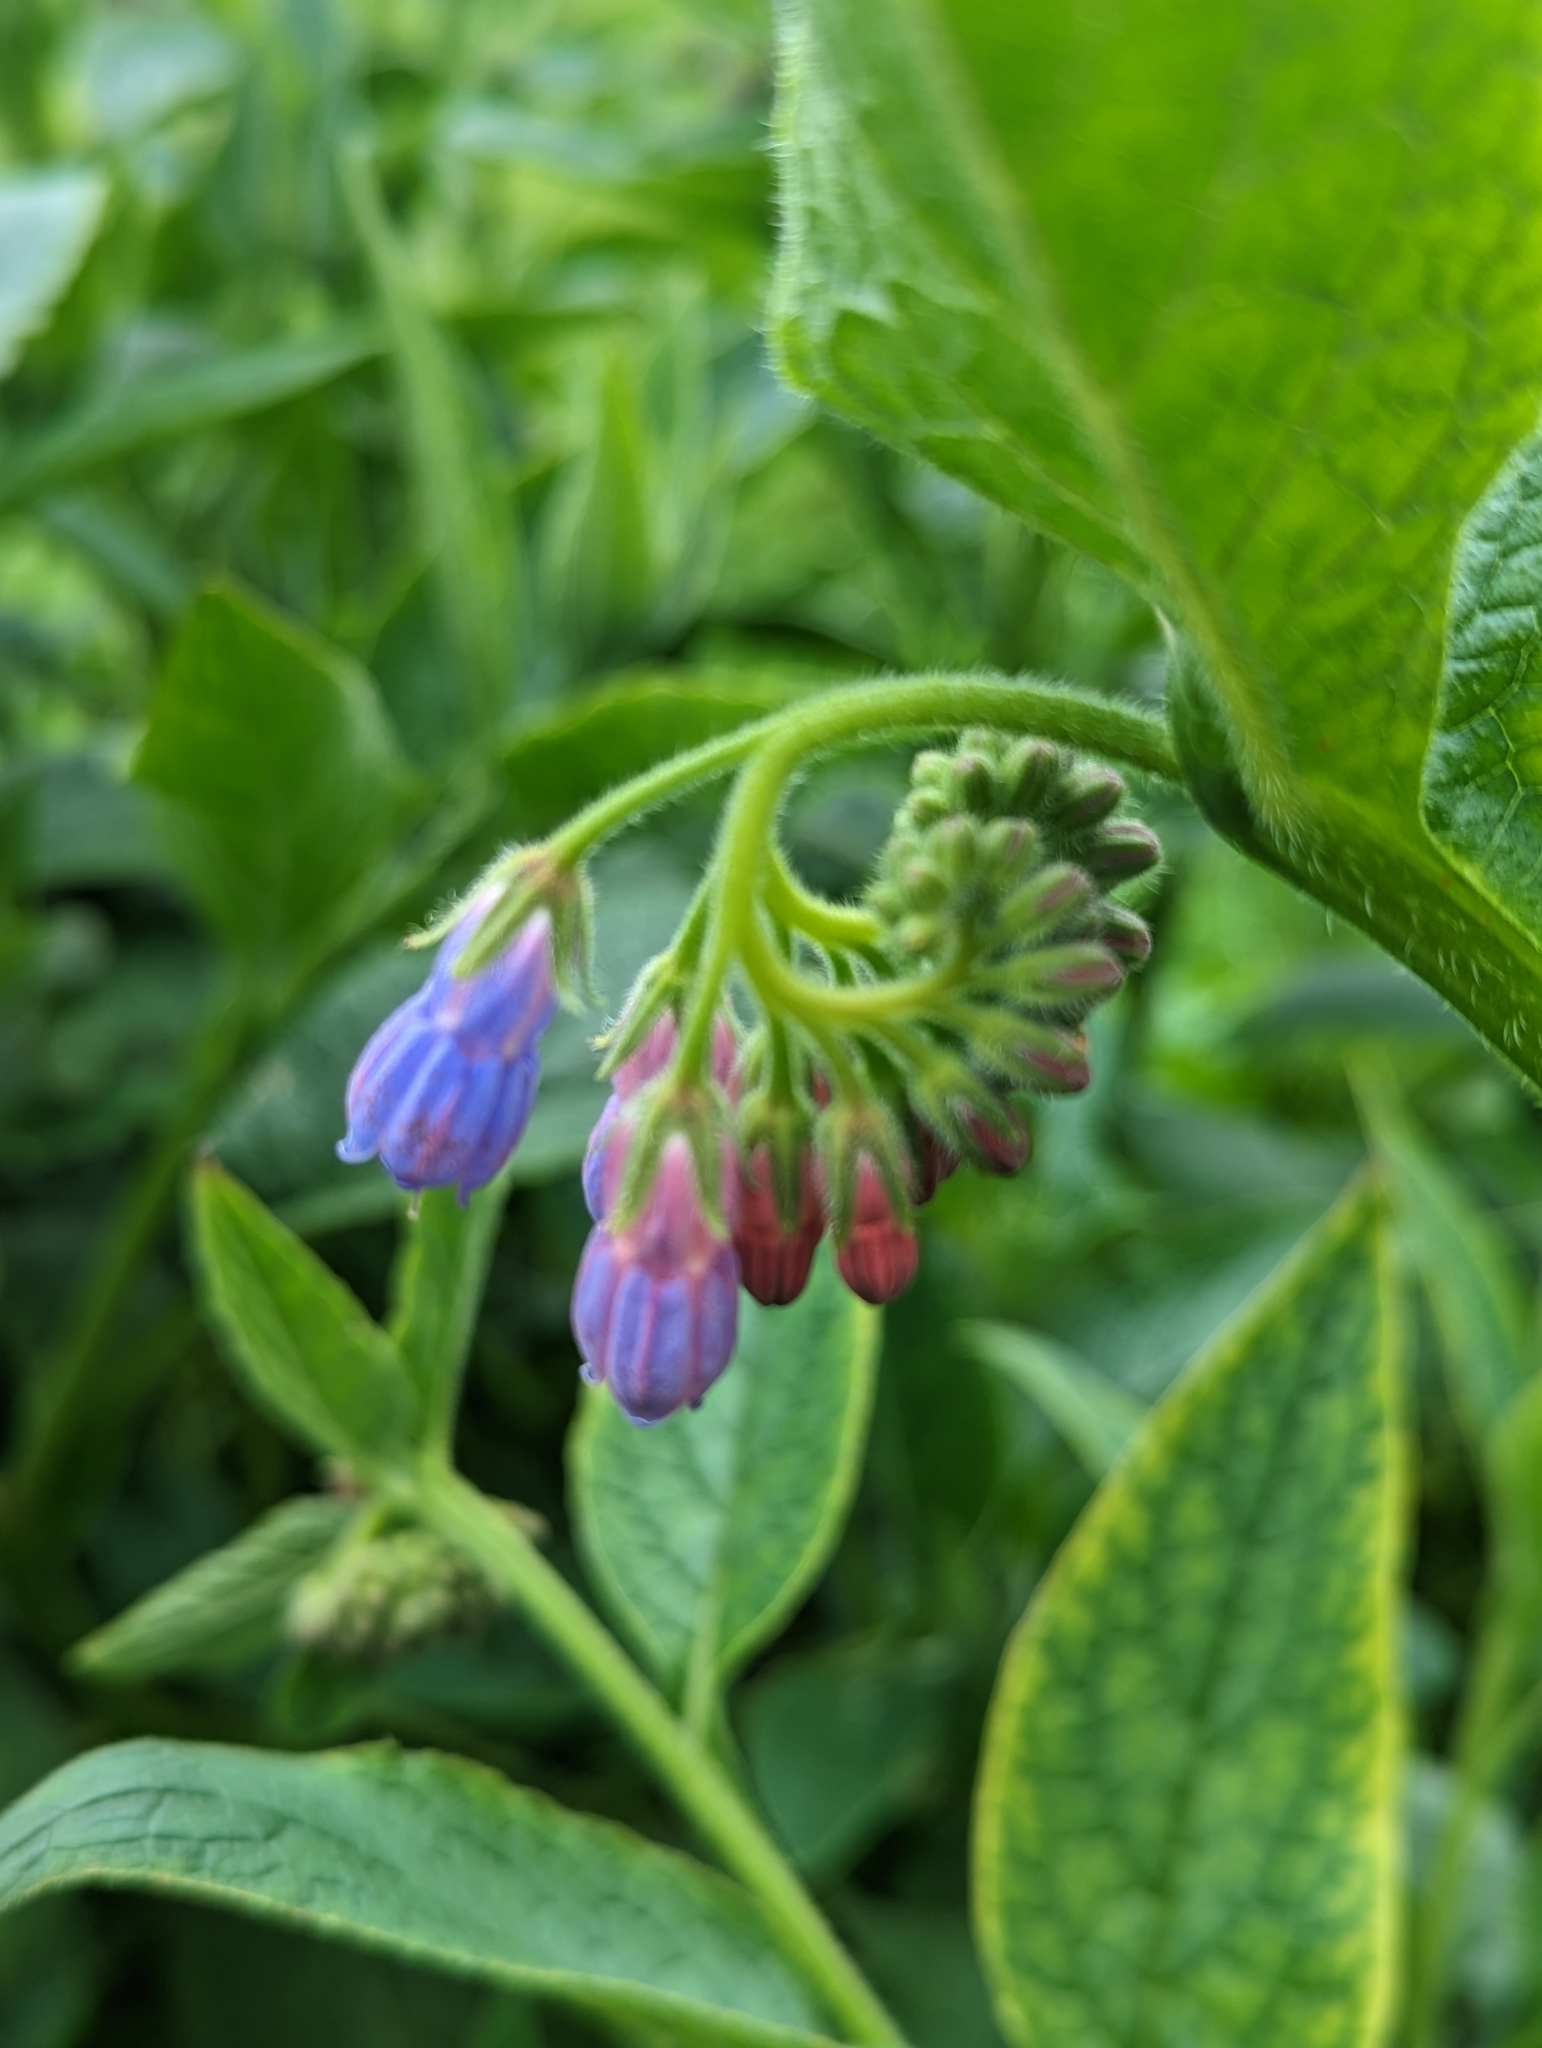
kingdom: Plantae
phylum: Tracheophyta
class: Magnoliopsida
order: Boraginales
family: Boraginaceae
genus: Symphytum
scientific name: Symphytum uplandicum
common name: Russian comfrey
